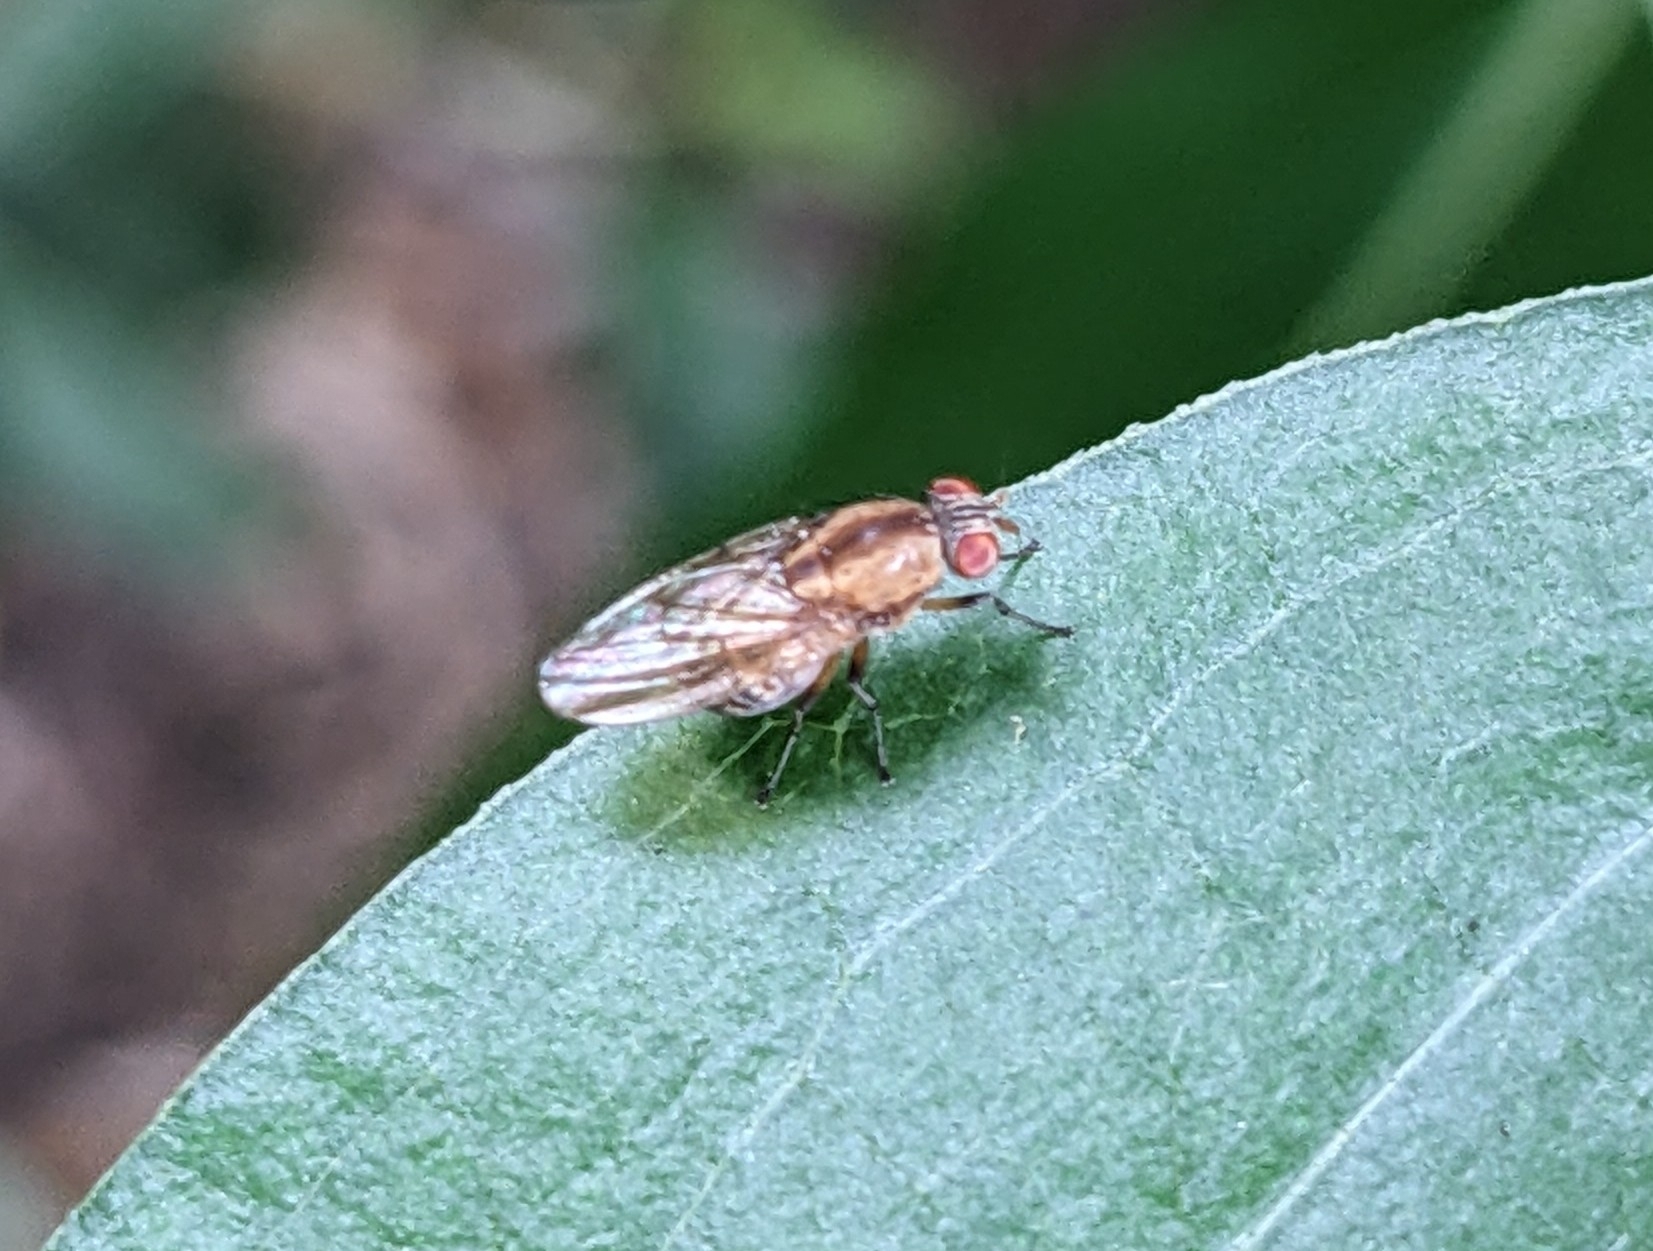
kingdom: Animalia
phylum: Arthropoda
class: Insecta
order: Diptera
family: Lauxaniidae
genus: Sapromyza
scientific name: Sapromyza neozelandica
